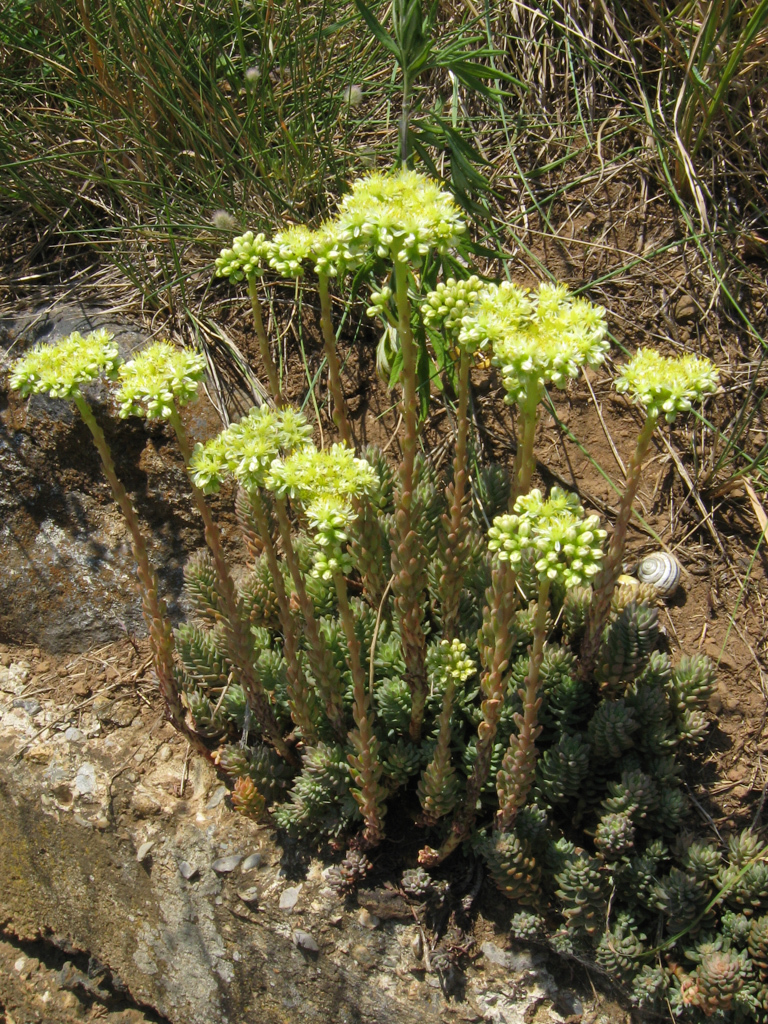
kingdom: Plantae
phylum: Tracheophyta
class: Magnoliopsida
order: Saxifragales
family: Crassulaceae
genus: Petrosedum
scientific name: Petrosedum sediforme
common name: Pale stonecrop
